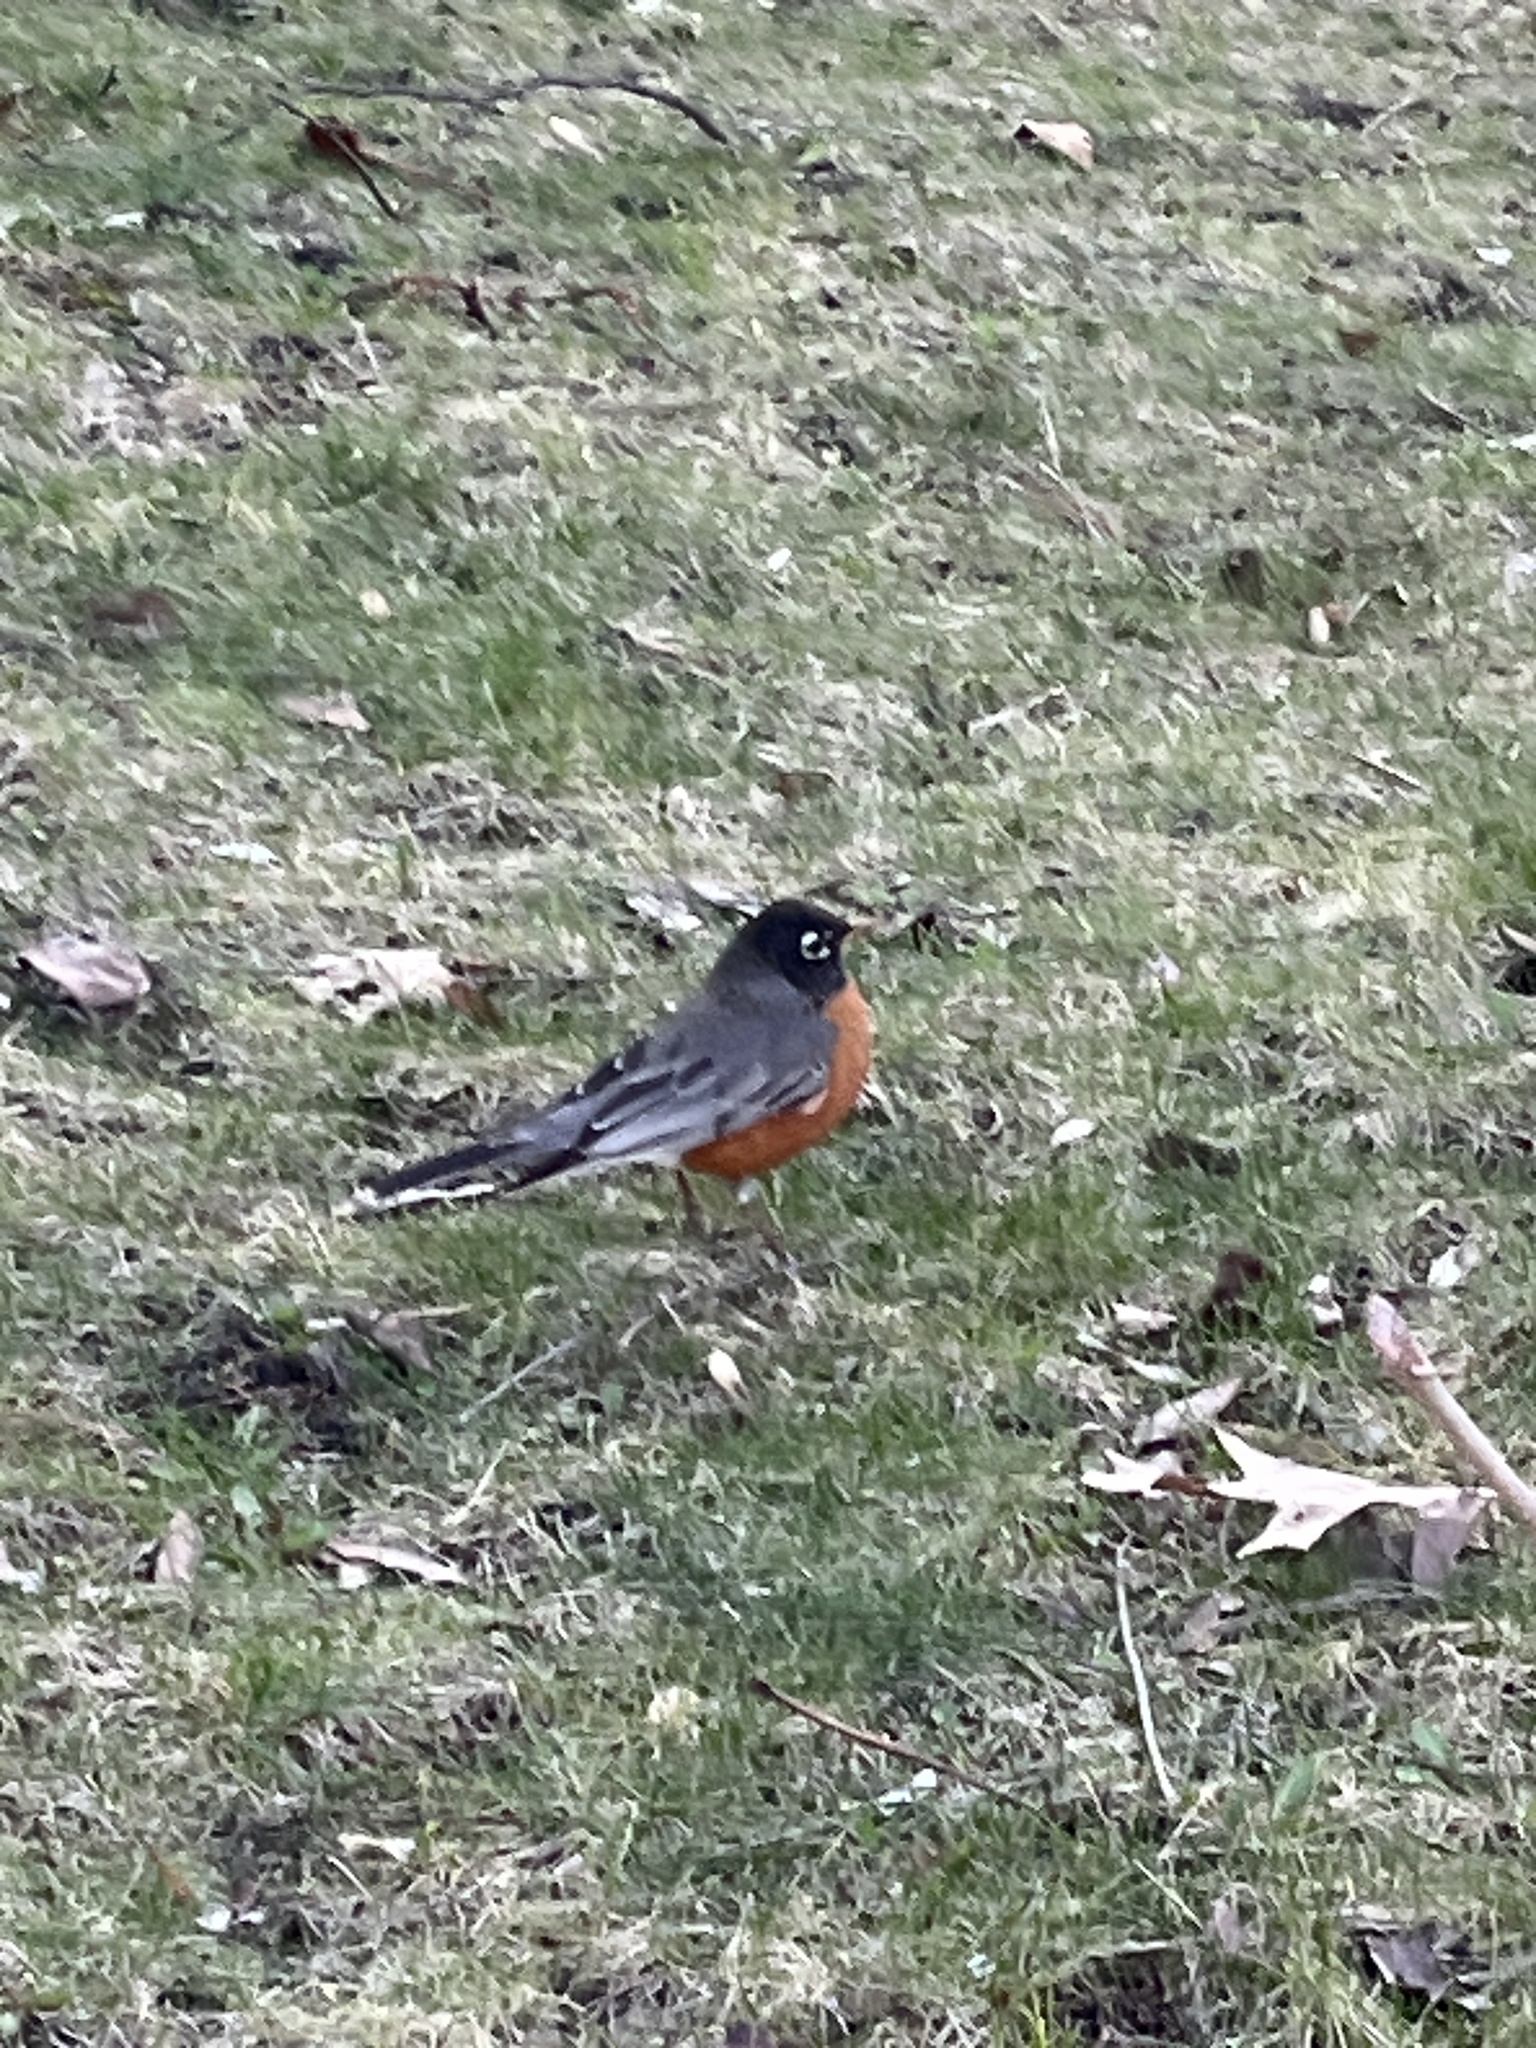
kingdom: Animalia
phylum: Chordata
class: Aves
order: Passeriformes
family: Turdidae
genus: Turdus
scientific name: Turdus migratorius
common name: American robin
